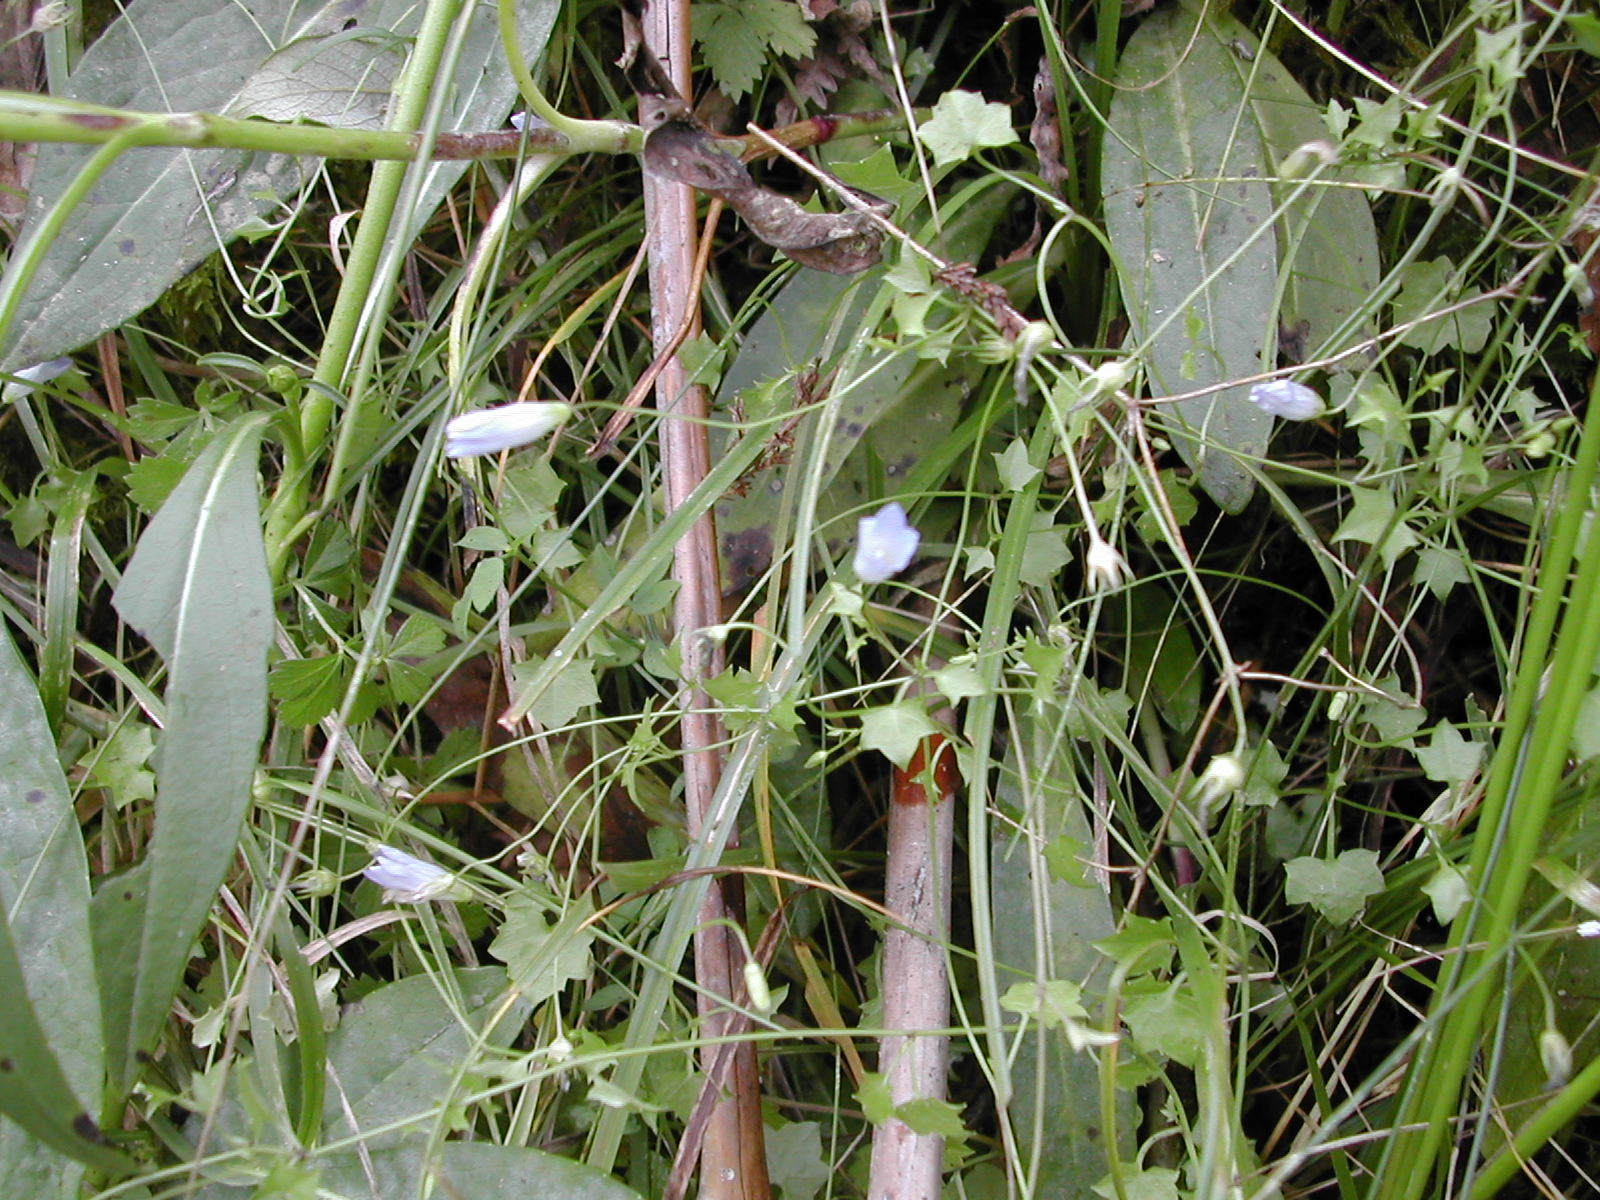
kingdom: Plantae
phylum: Tracheophyta
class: Magnoliopsida
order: Asterales
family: Campanulaceae
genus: Hesperocodon
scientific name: Hesperocodon hederaceus
